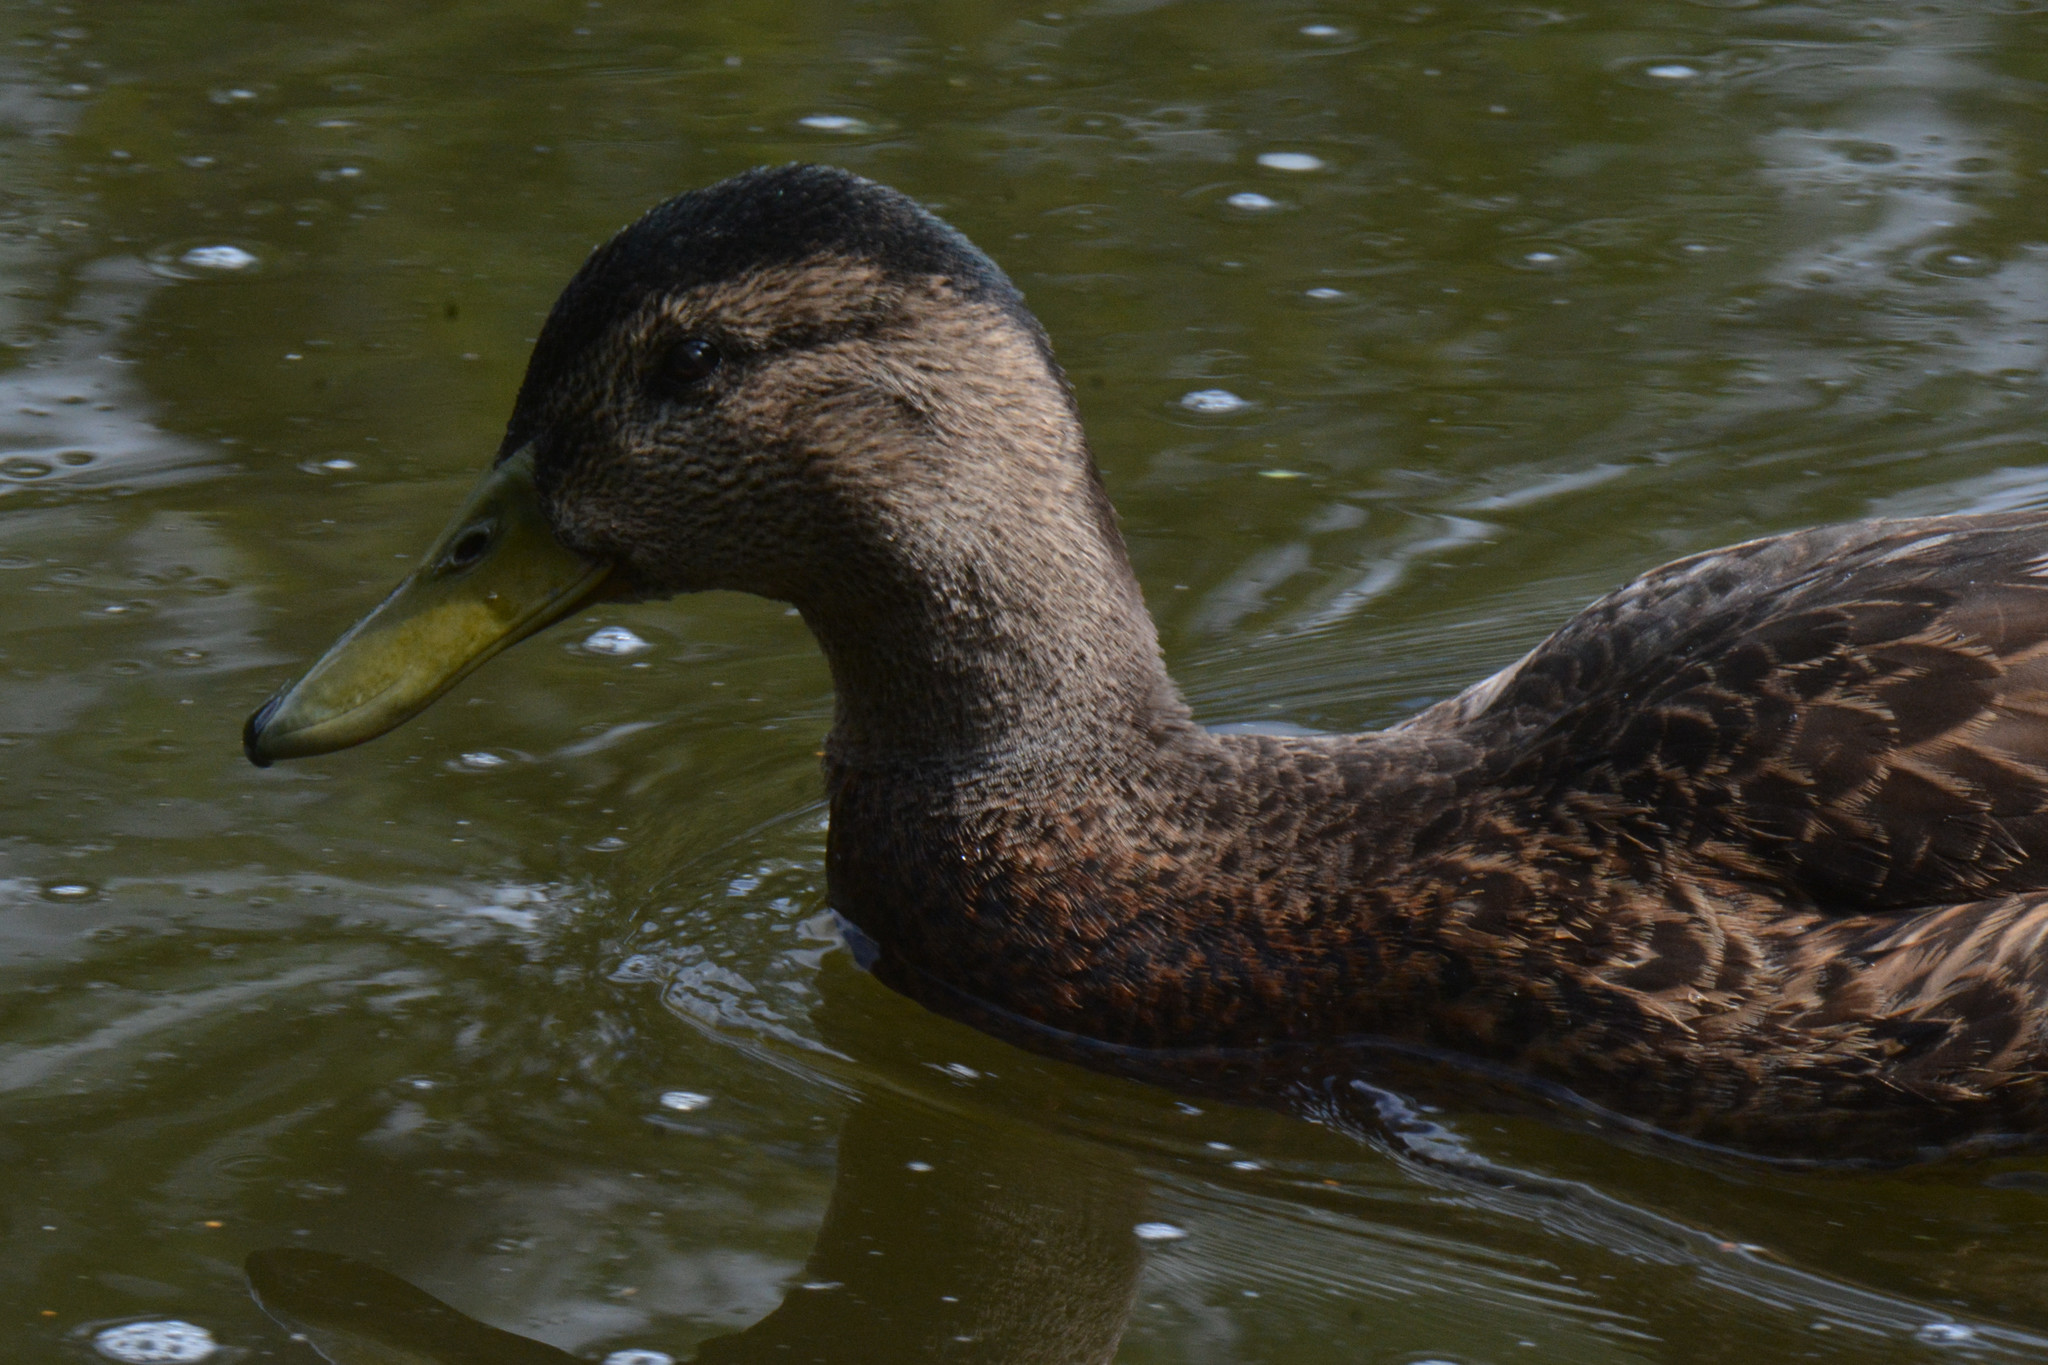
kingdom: Animalia
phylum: Chordata
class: Aves
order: Anseriformes
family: Anatidae
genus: Anas
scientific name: Anas platyrhynchos
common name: Mallard
